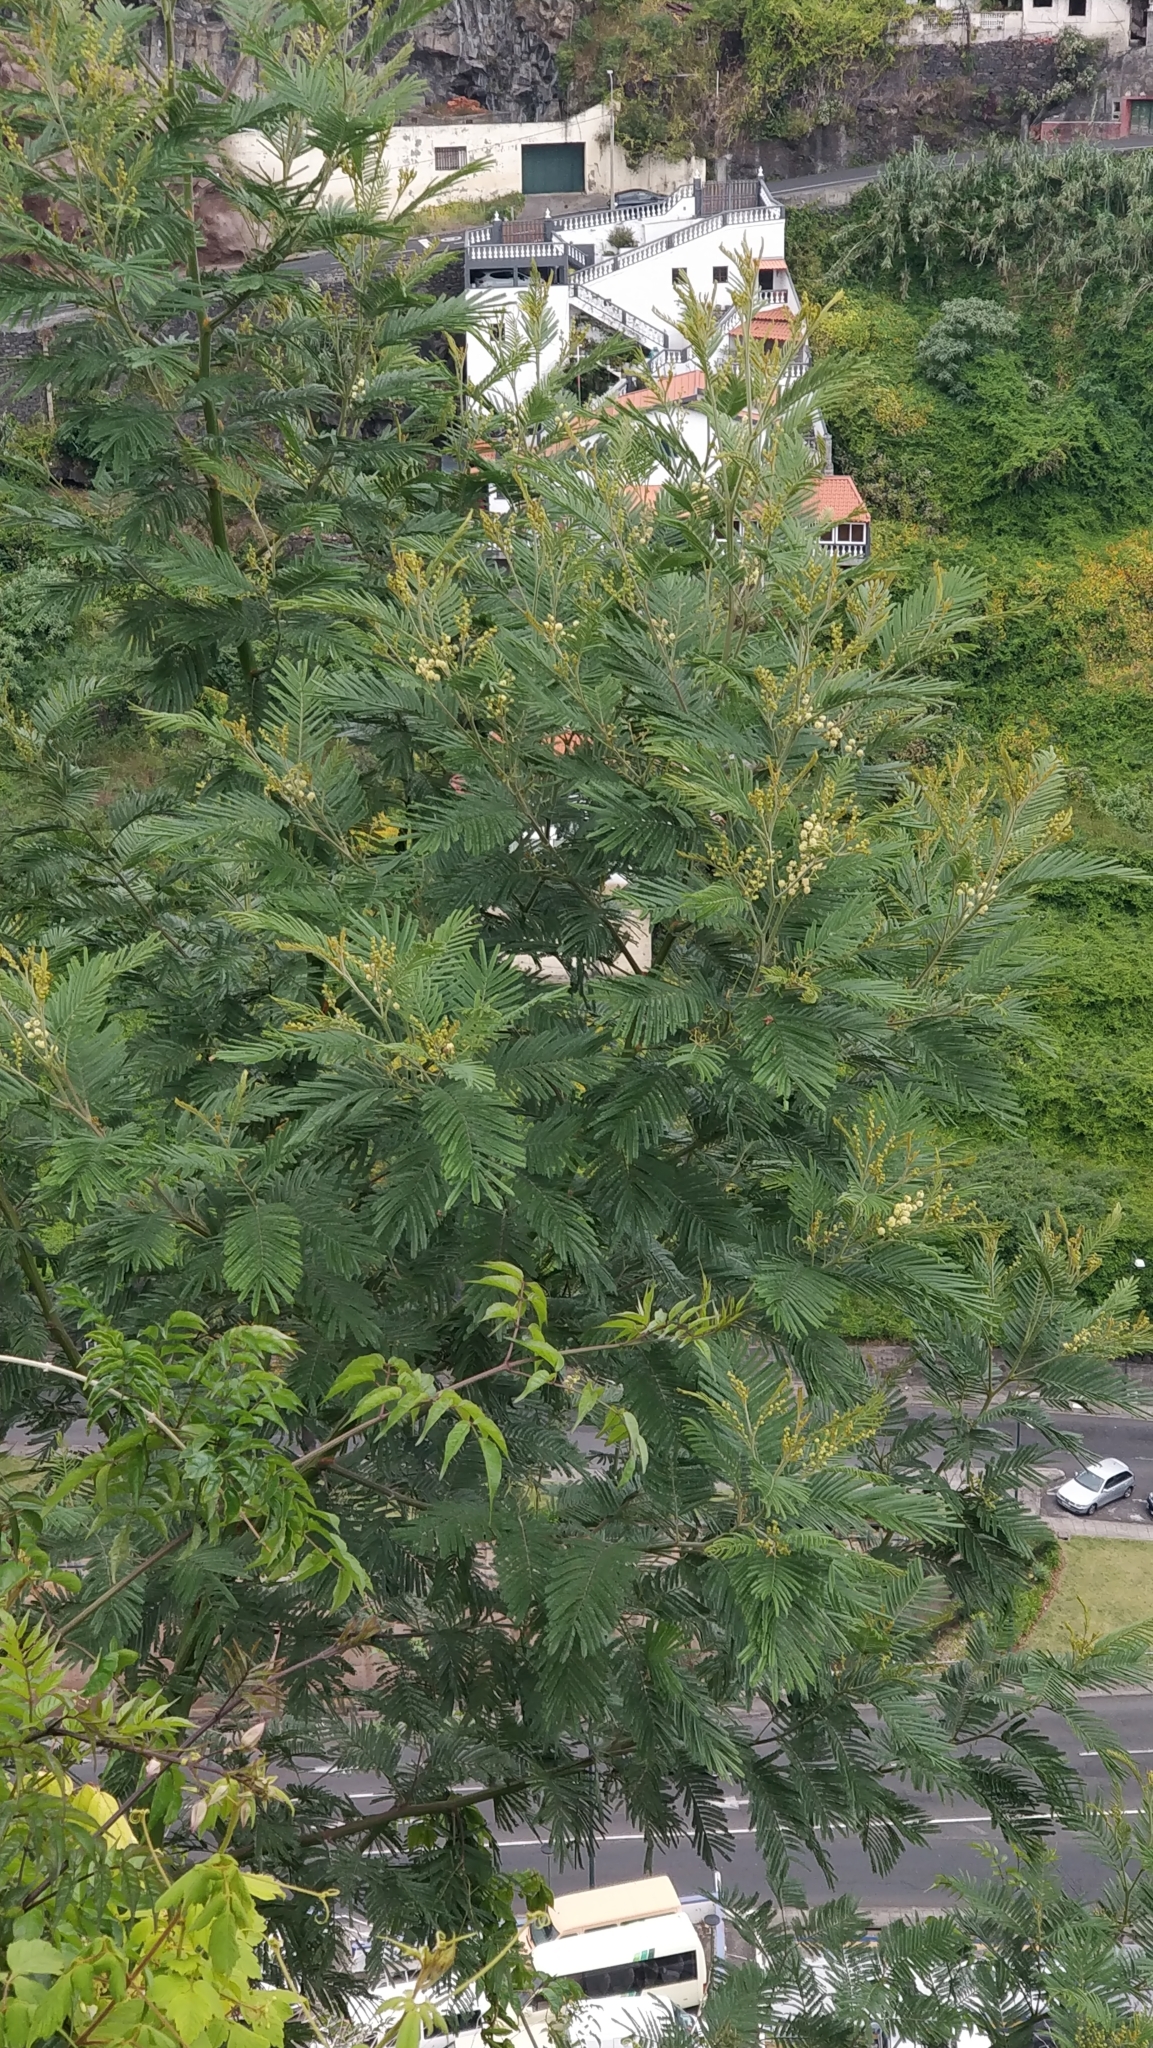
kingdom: Plantae
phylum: Tracheophyta
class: Magnoliopsida
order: Fabales
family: Fabaceae
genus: Acacia
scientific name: Acacia mearnsii
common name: Black wattle
